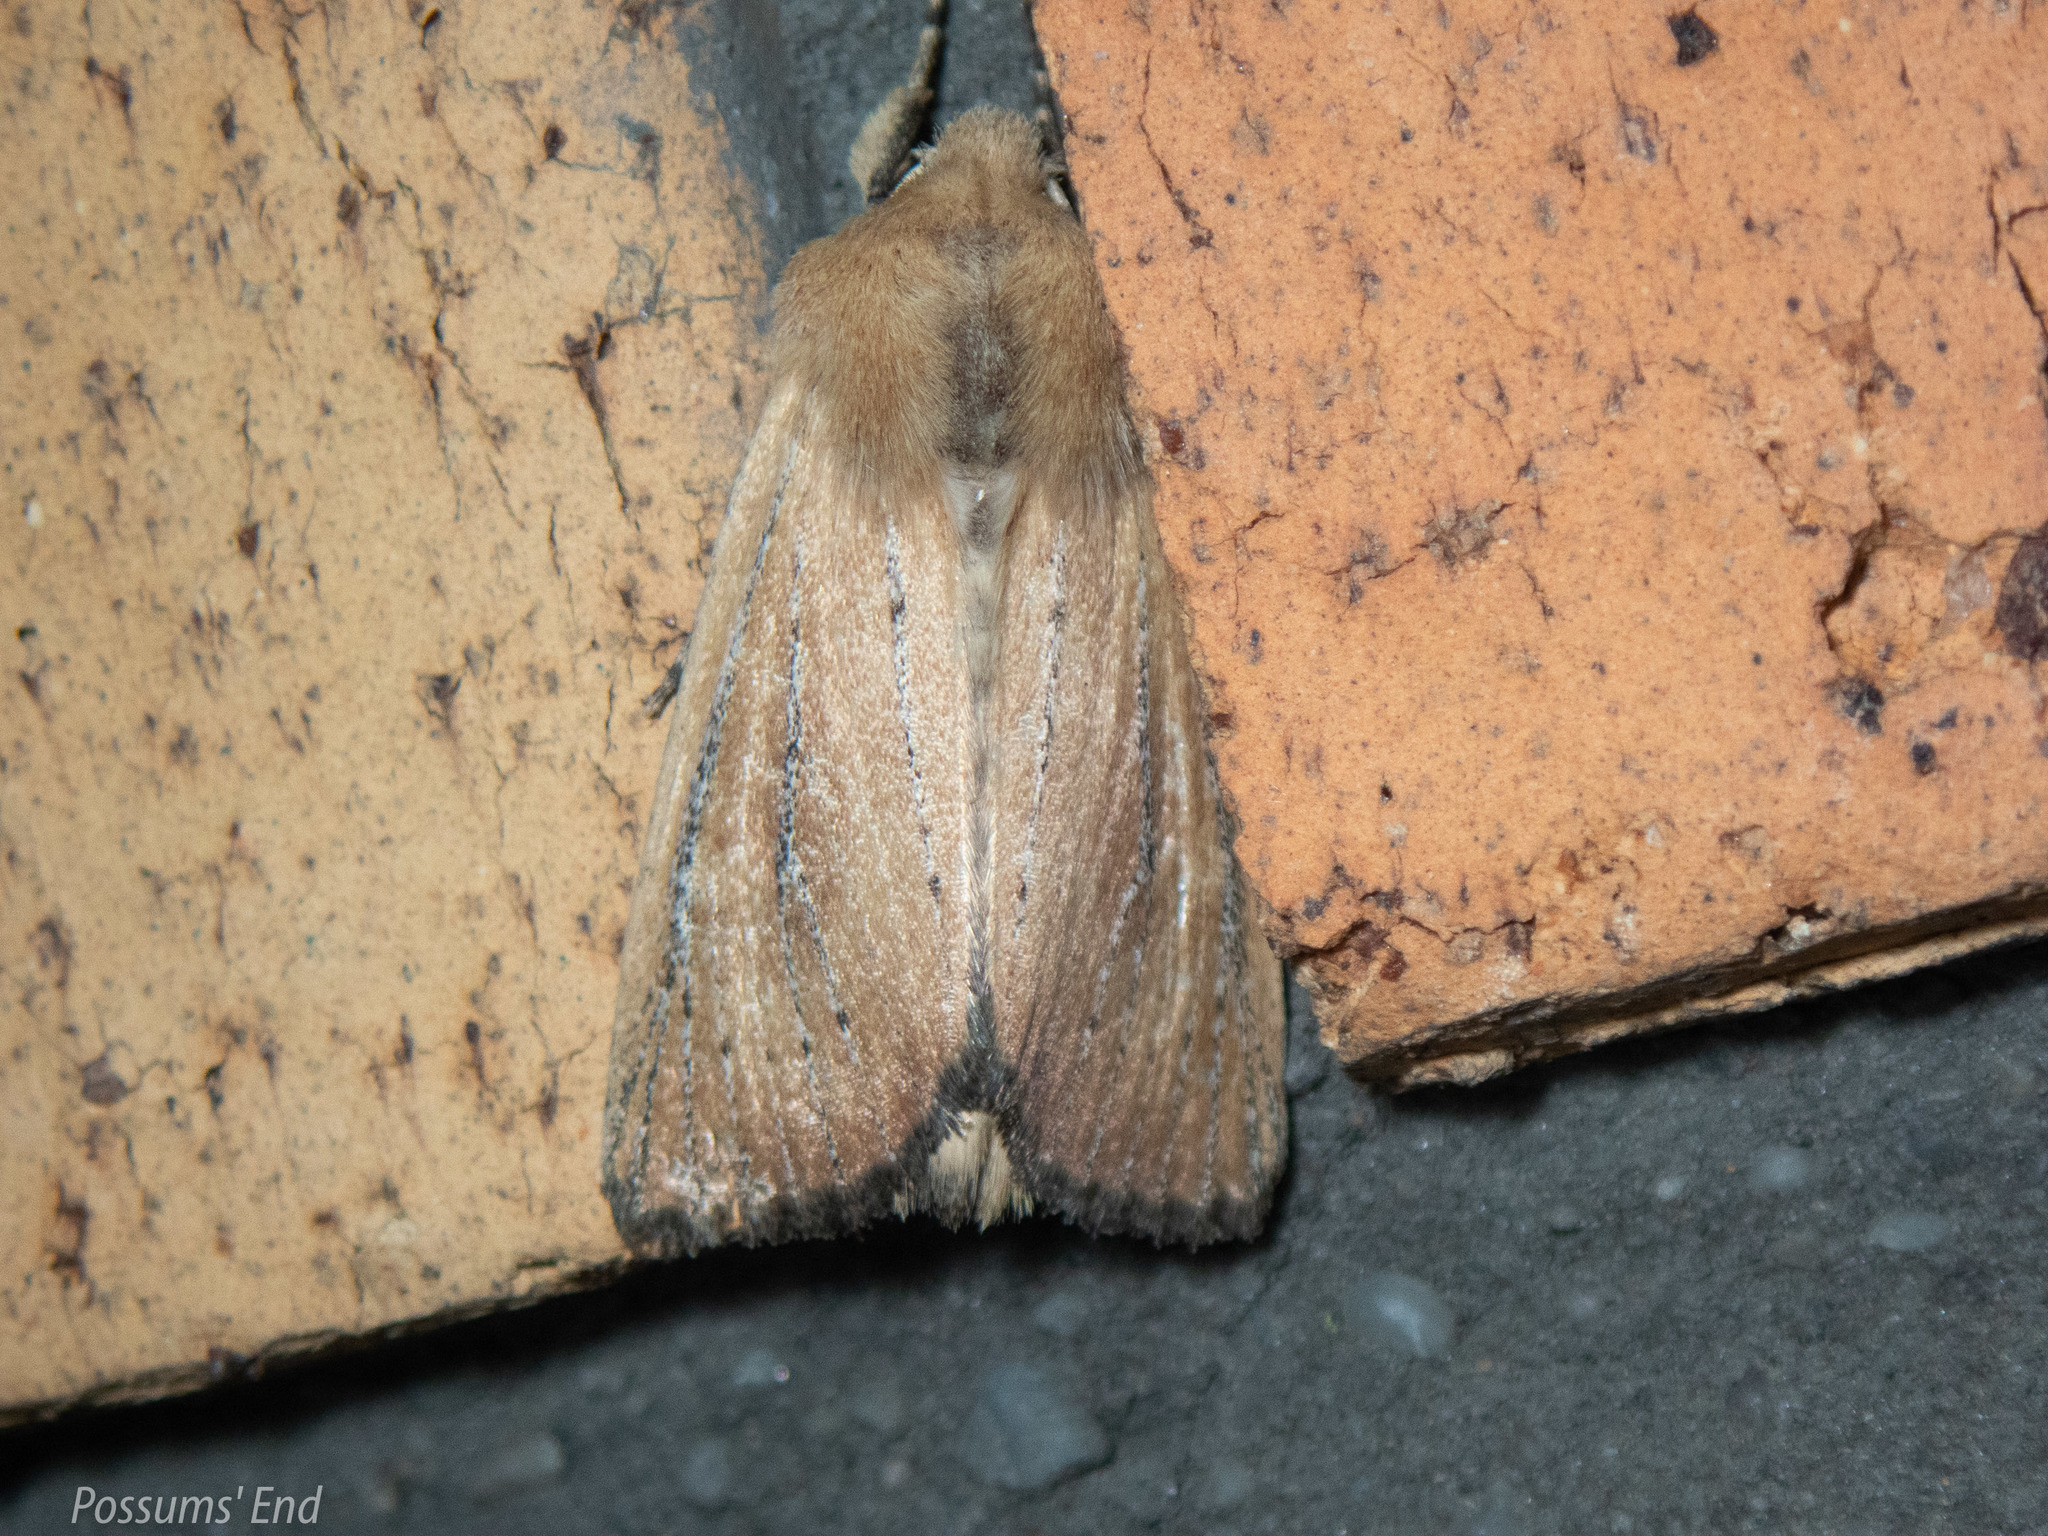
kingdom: Animalia
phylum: Arthropoda
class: Insecta
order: Lepidoptera
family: Noctuidae
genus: Ichneutica
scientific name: Ichneutica blenheimensis
